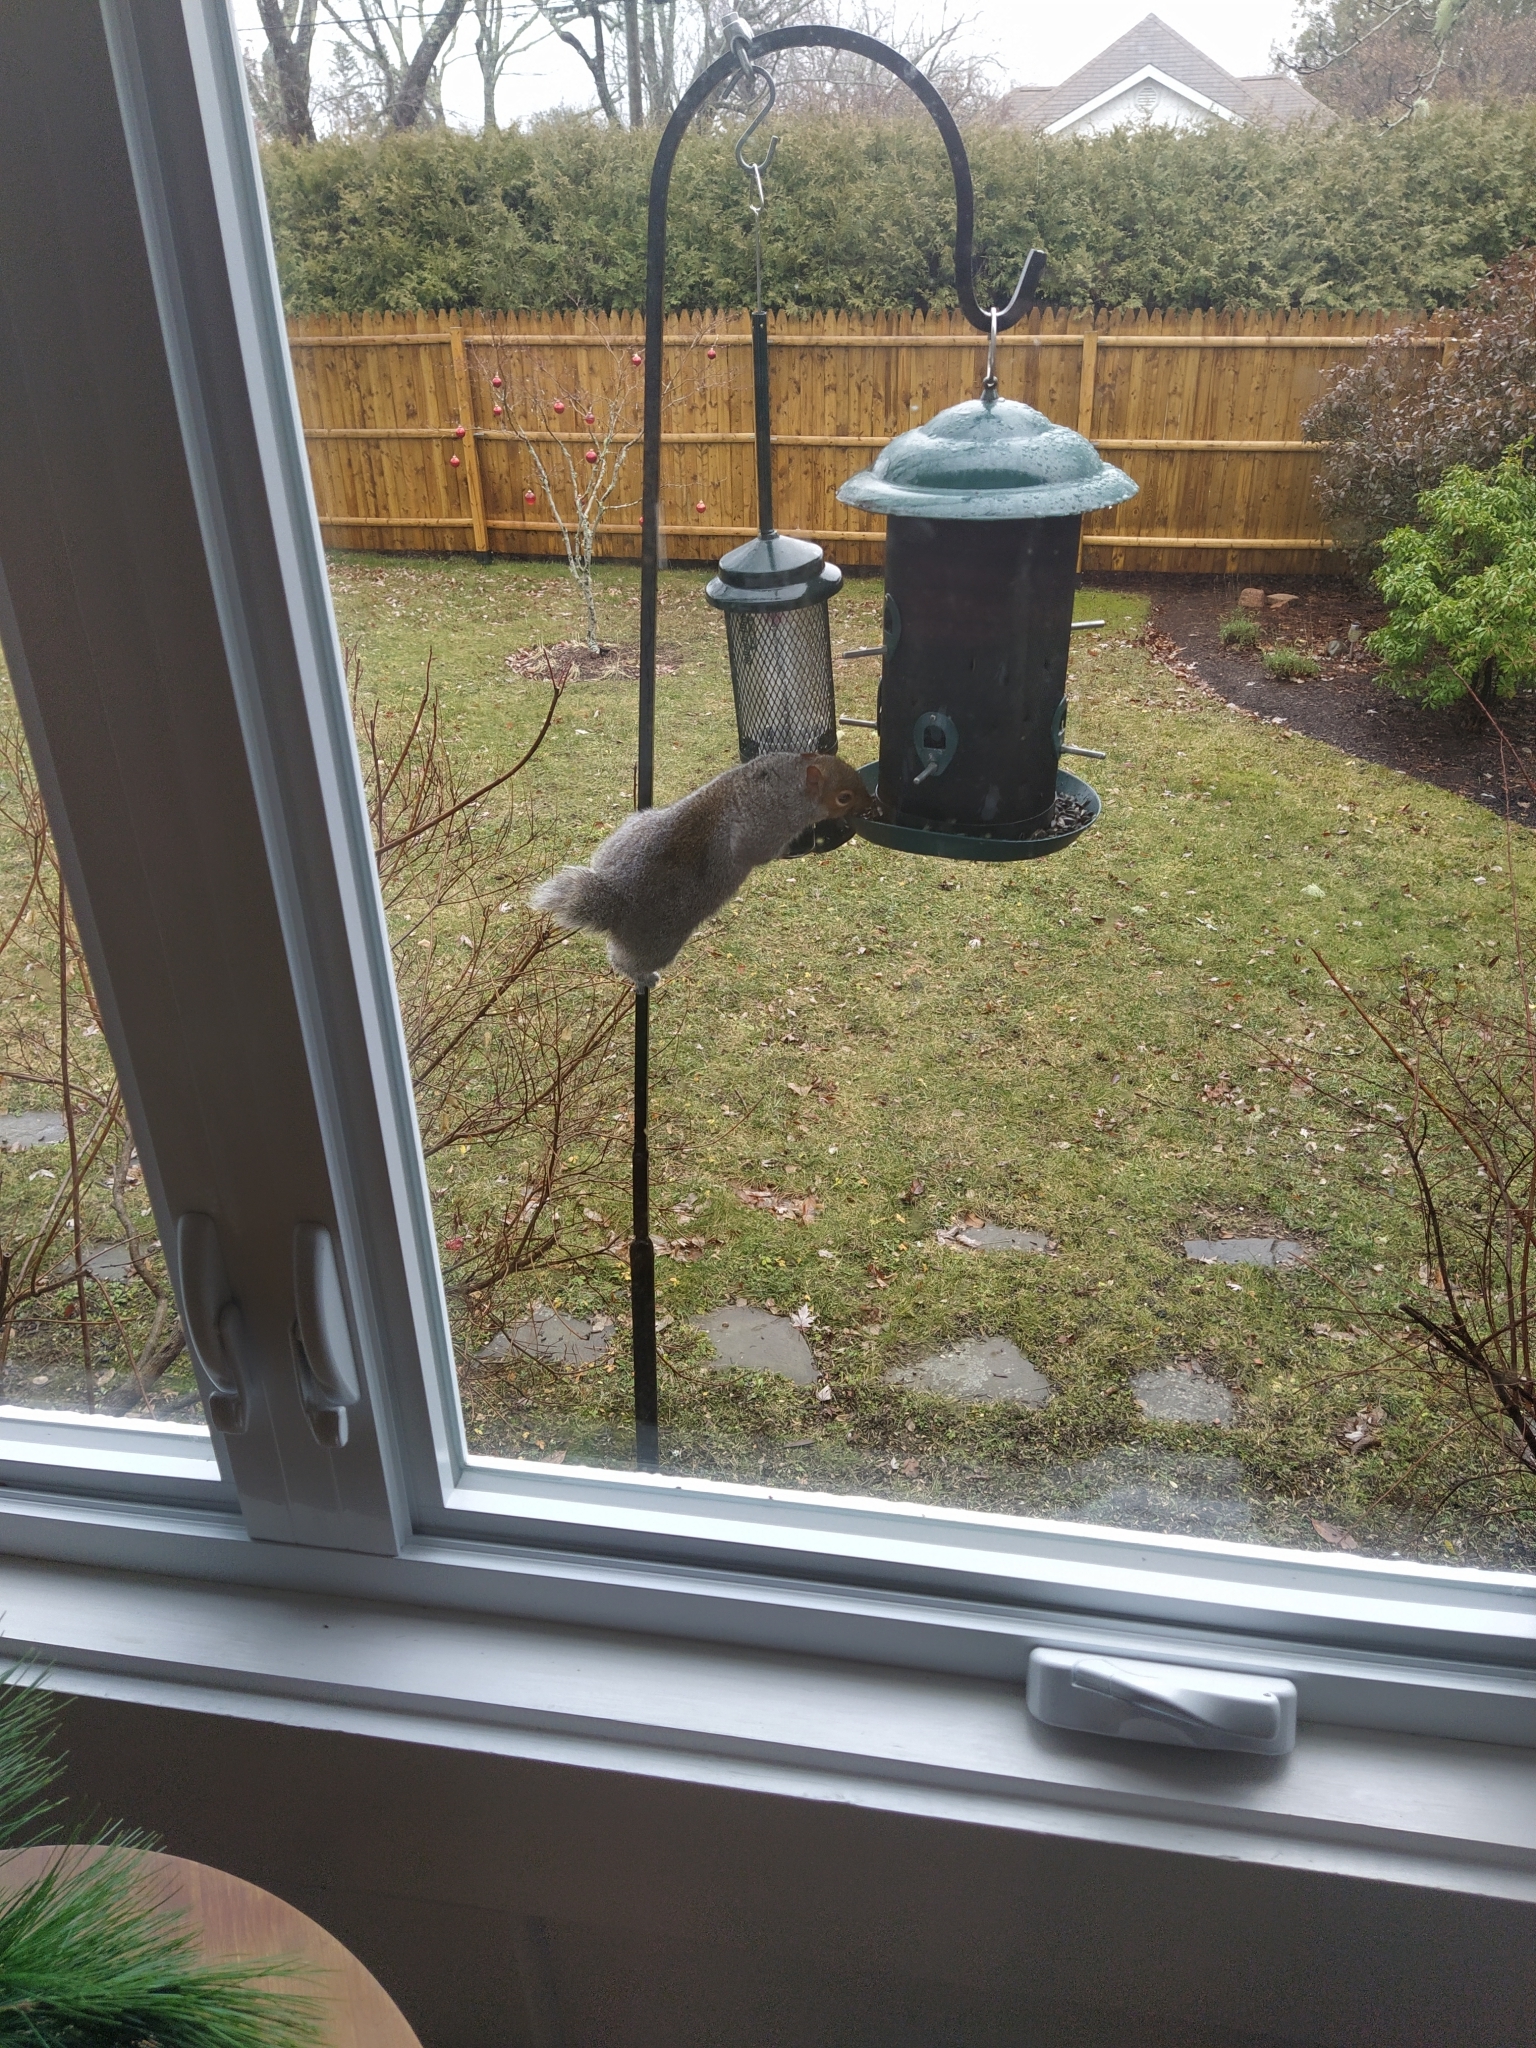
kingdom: Animalia
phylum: Chordata
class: Mammalia
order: Rodentia
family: Sciuridae
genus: Sciurus
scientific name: Sciurus carolinensis
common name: Eastern gray squirrel
